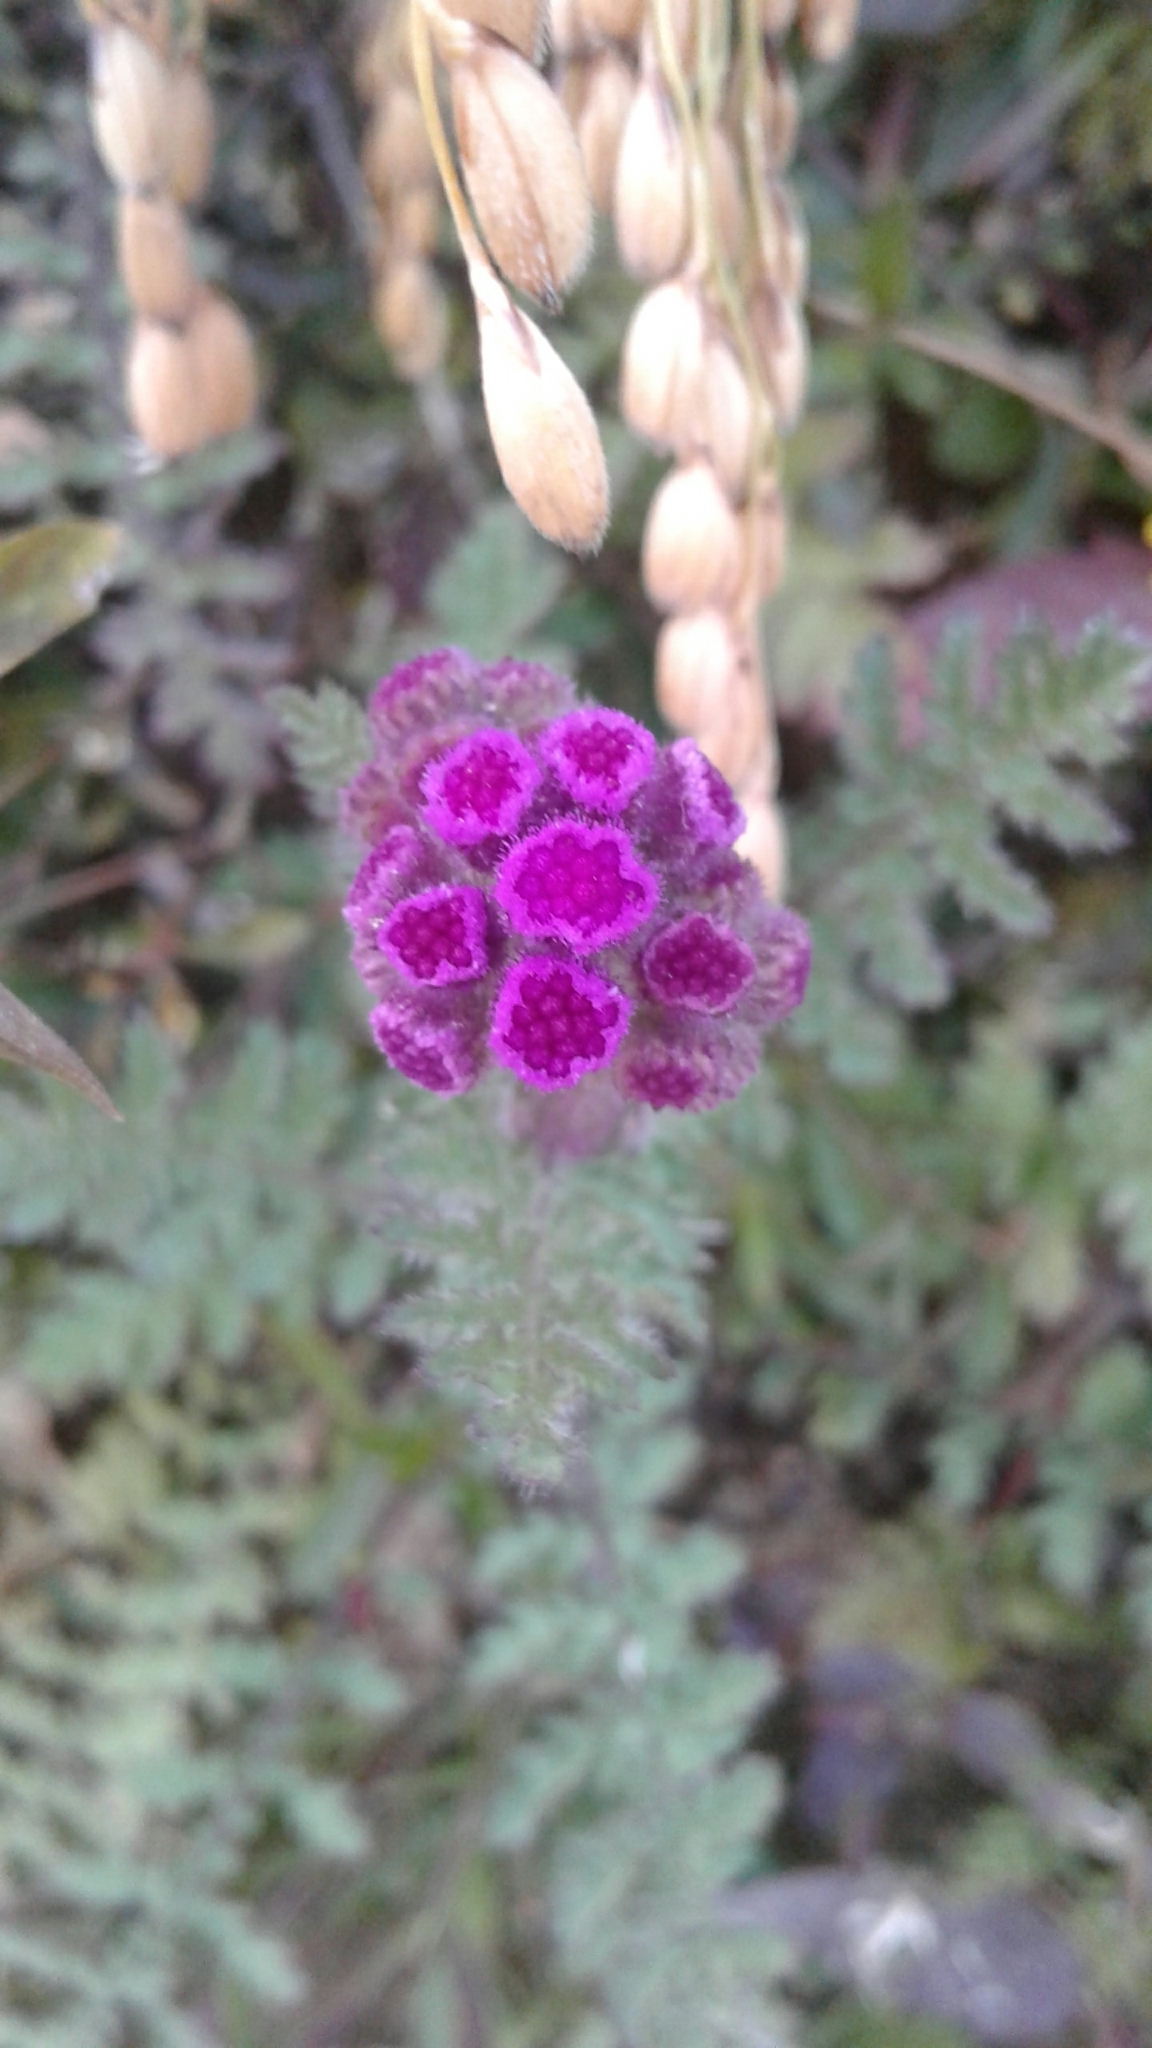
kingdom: Plantae
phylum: Tracheophyta
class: Magnoliopsida
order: Asterales
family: Asteraceae
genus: Cyathocline
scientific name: Cyathocline purpurea
